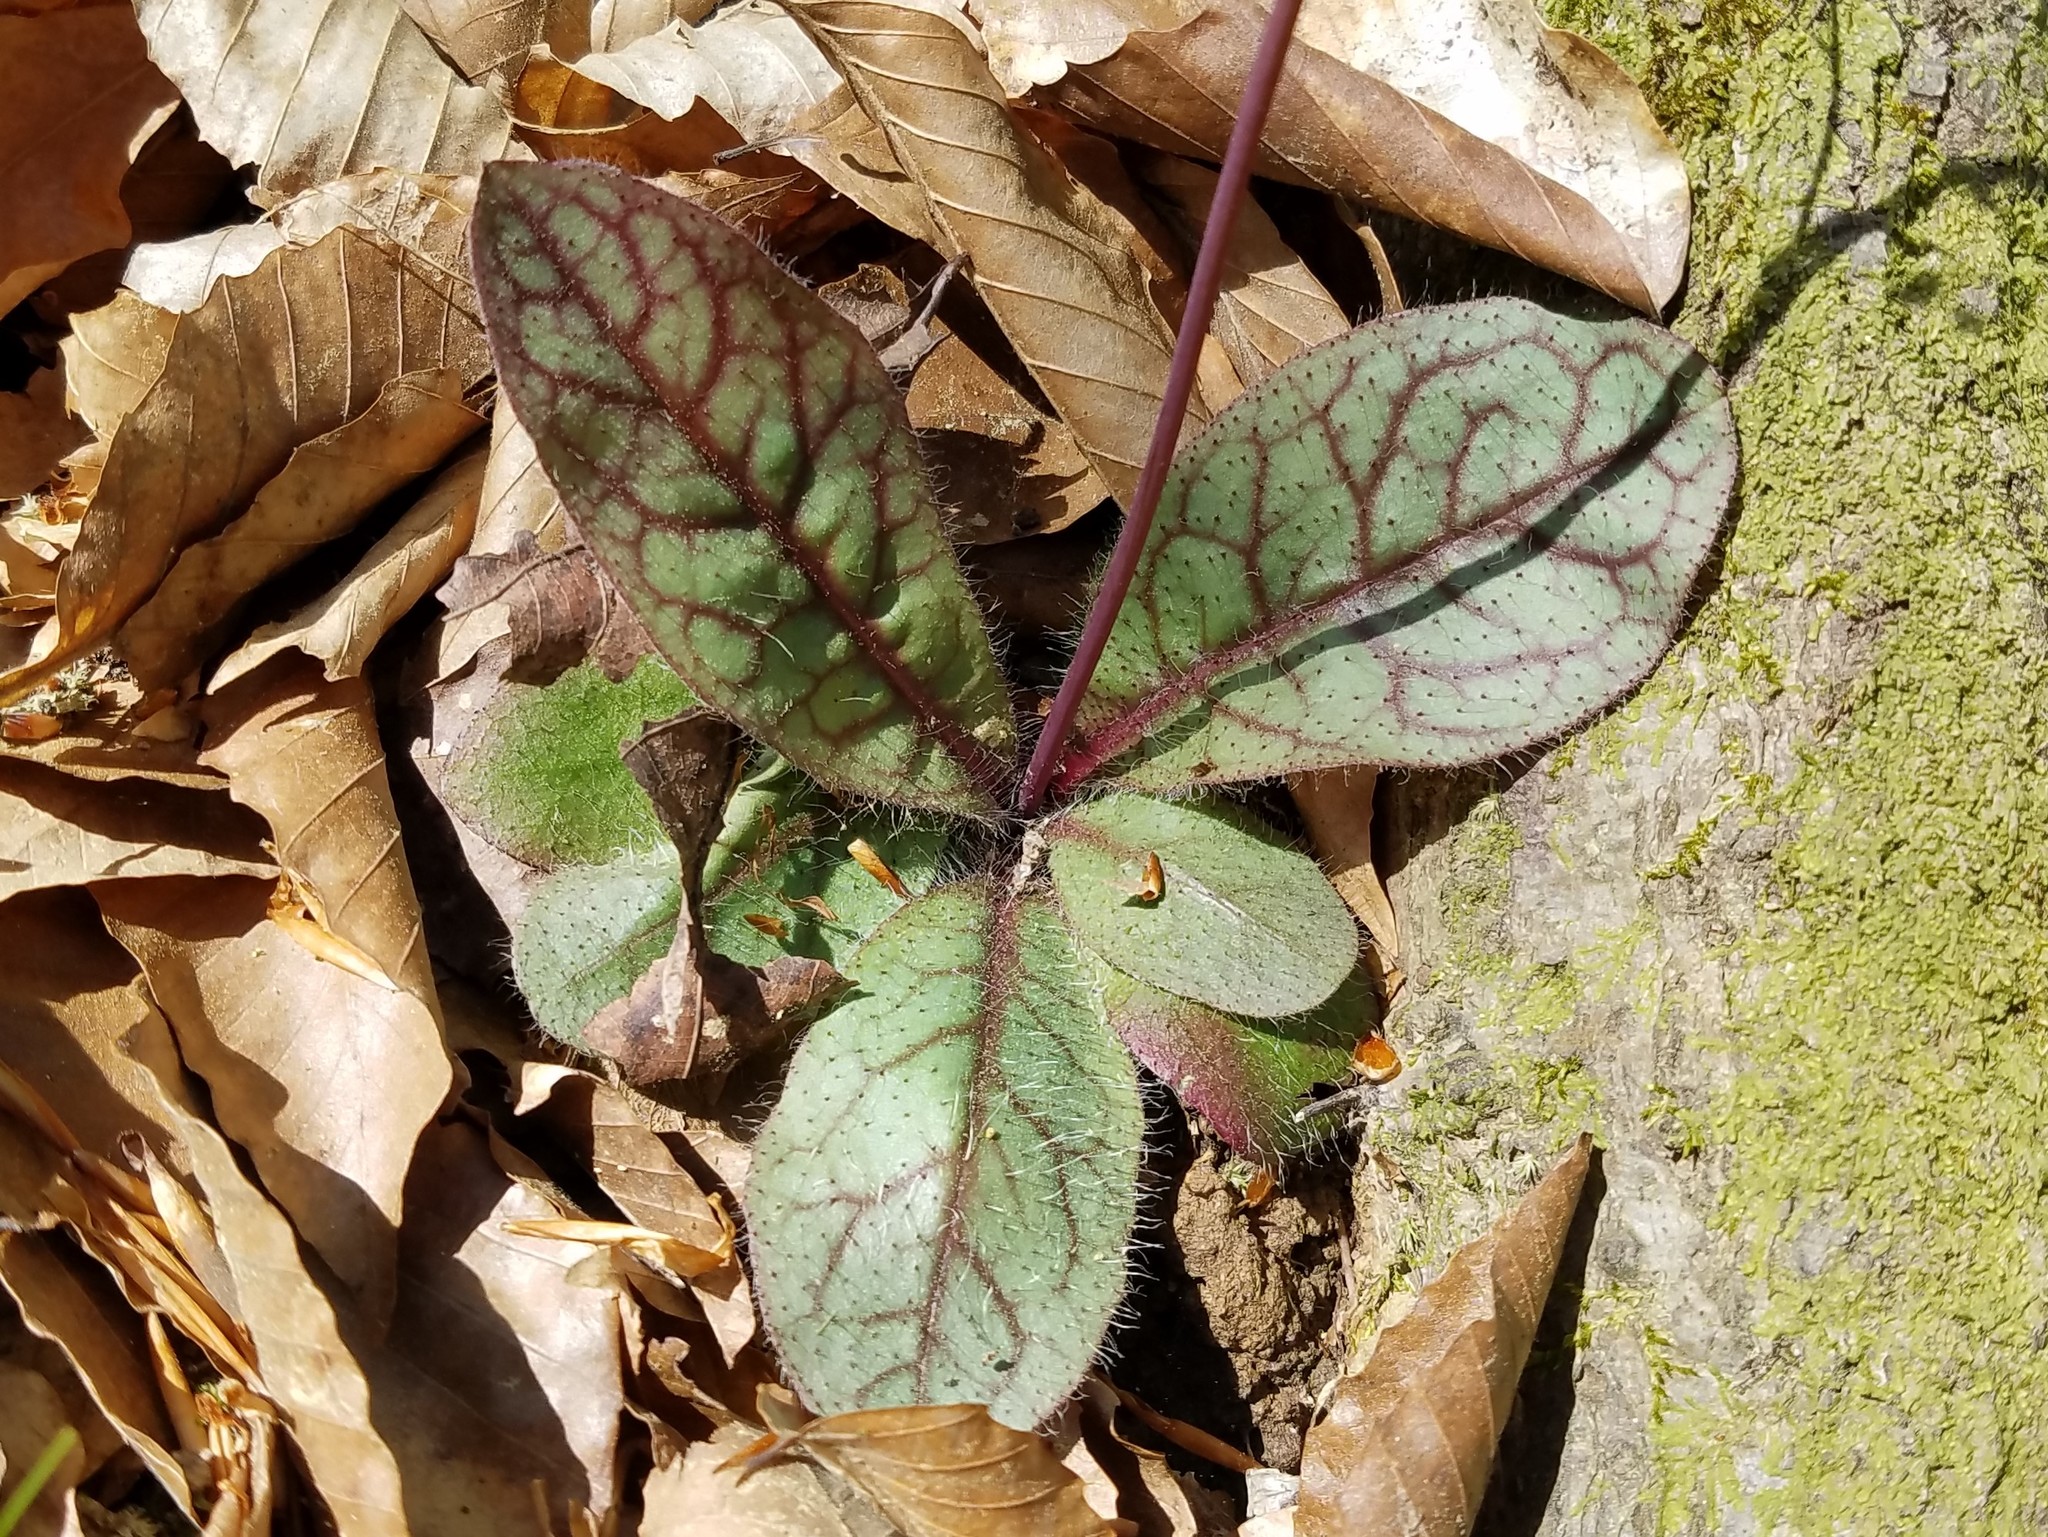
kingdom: Plantae
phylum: Tracheophyta
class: Magnoliopsida
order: Asterales
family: Asteraceae
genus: Hieracium
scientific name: Hieracium venosum
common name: Rattlesnake hawkweed
